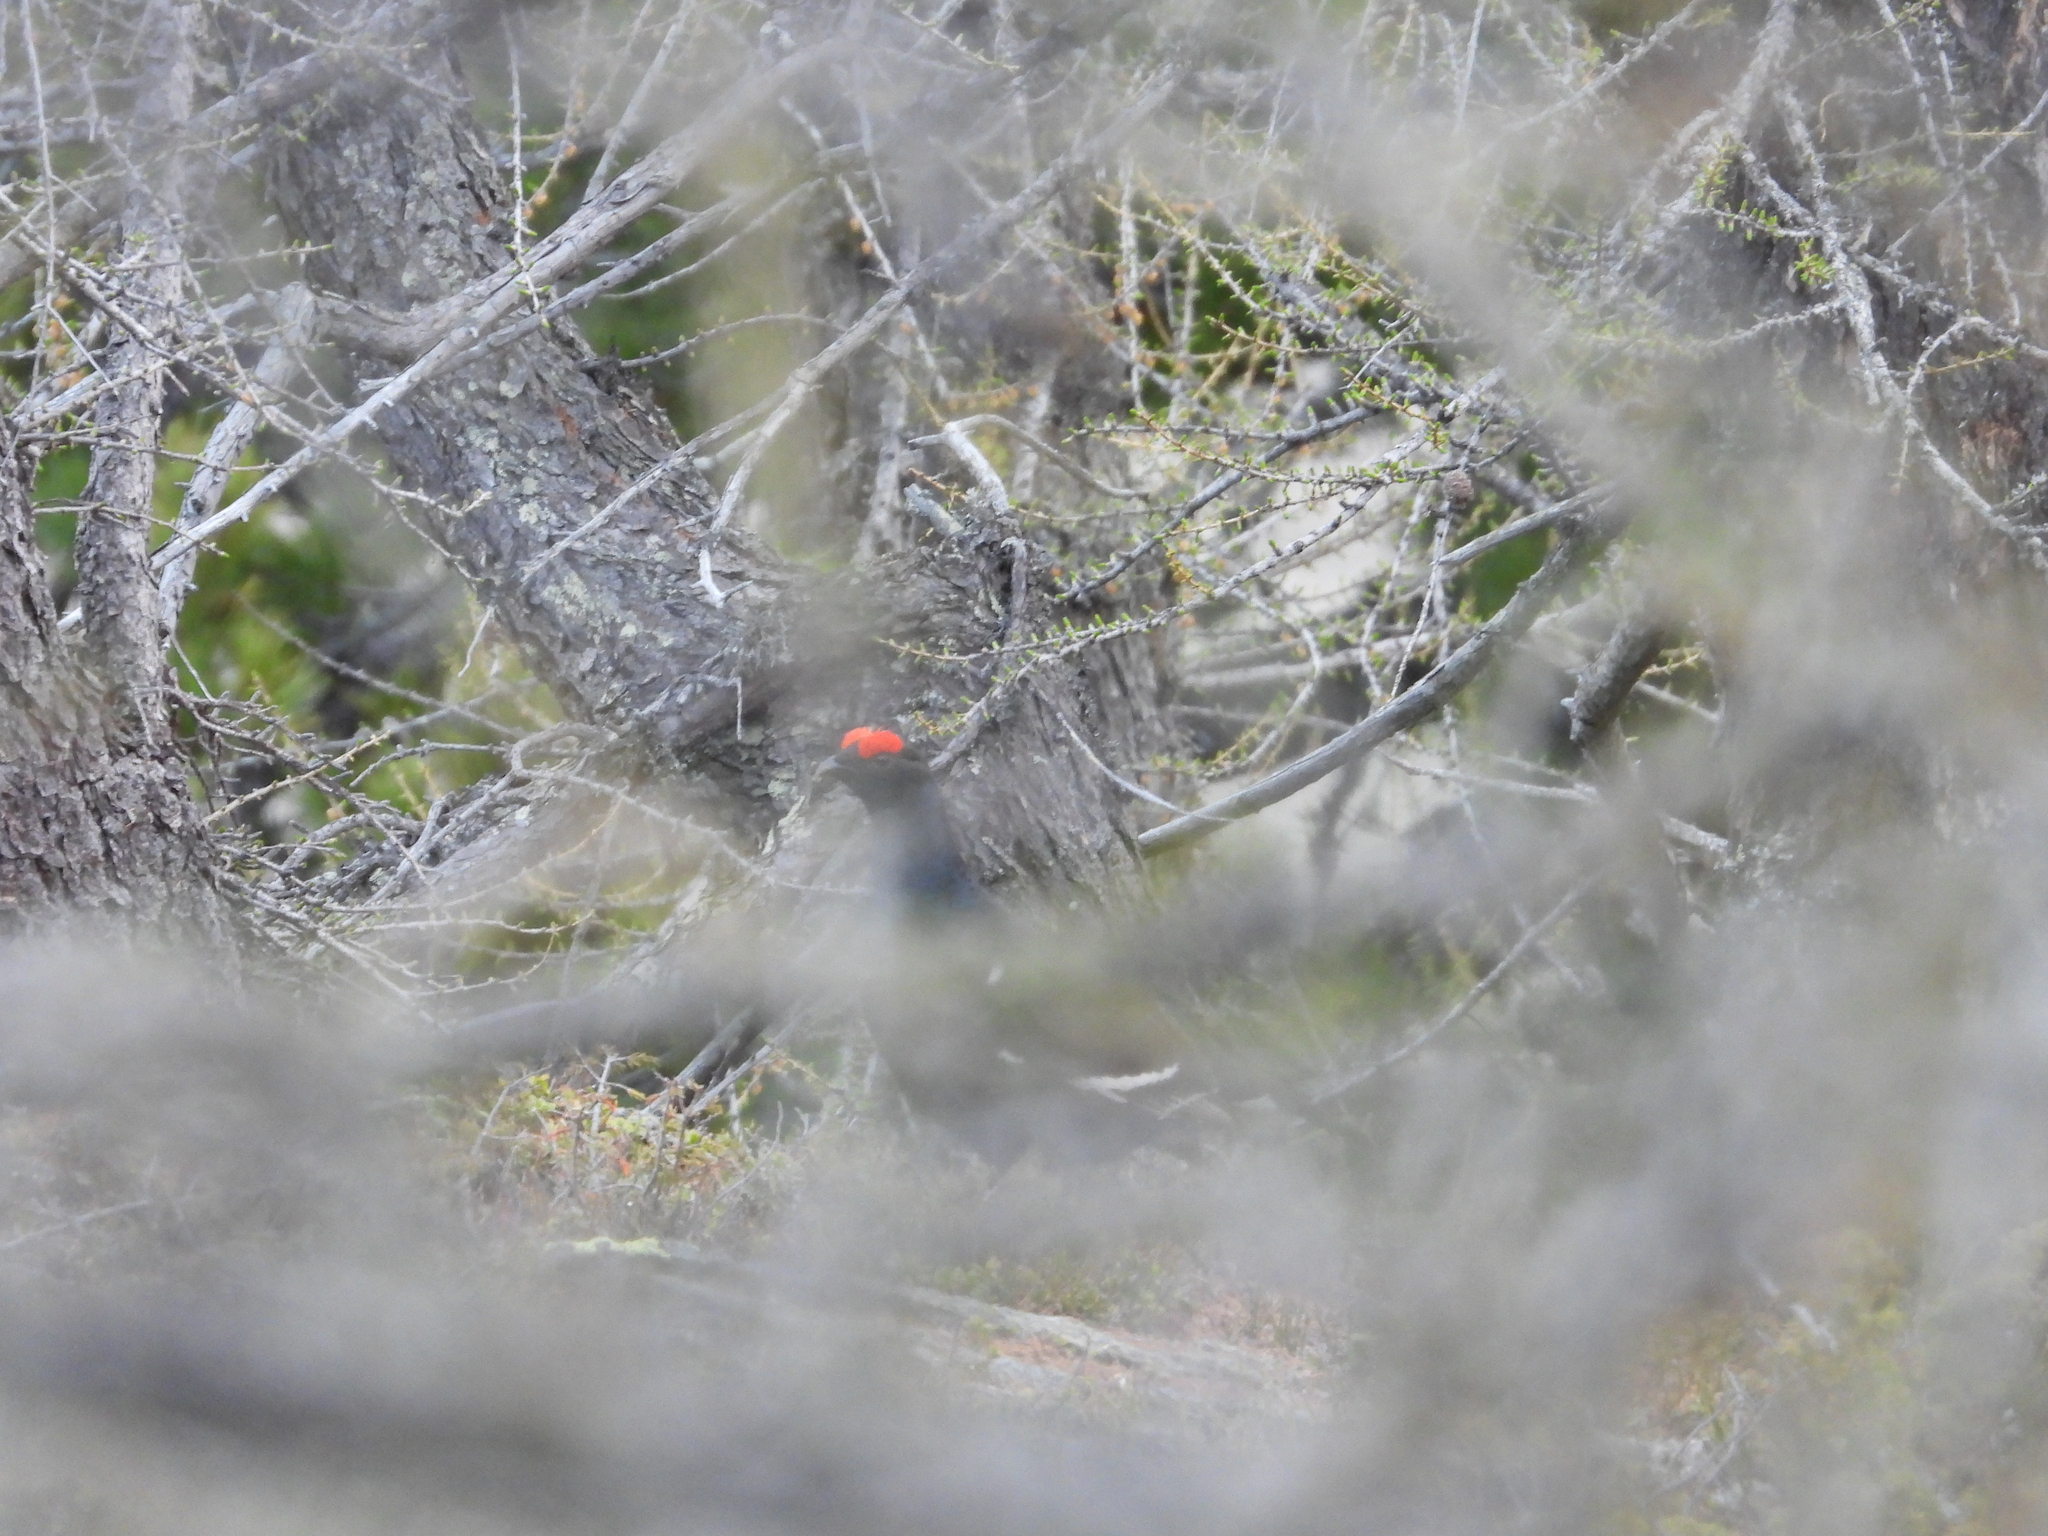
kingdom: Animalia
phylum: Chordata
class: Aves
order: Galliformes
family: Phasianidae
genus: Lyrurus
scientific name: Lyrurus tetrix
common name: Black grouse
